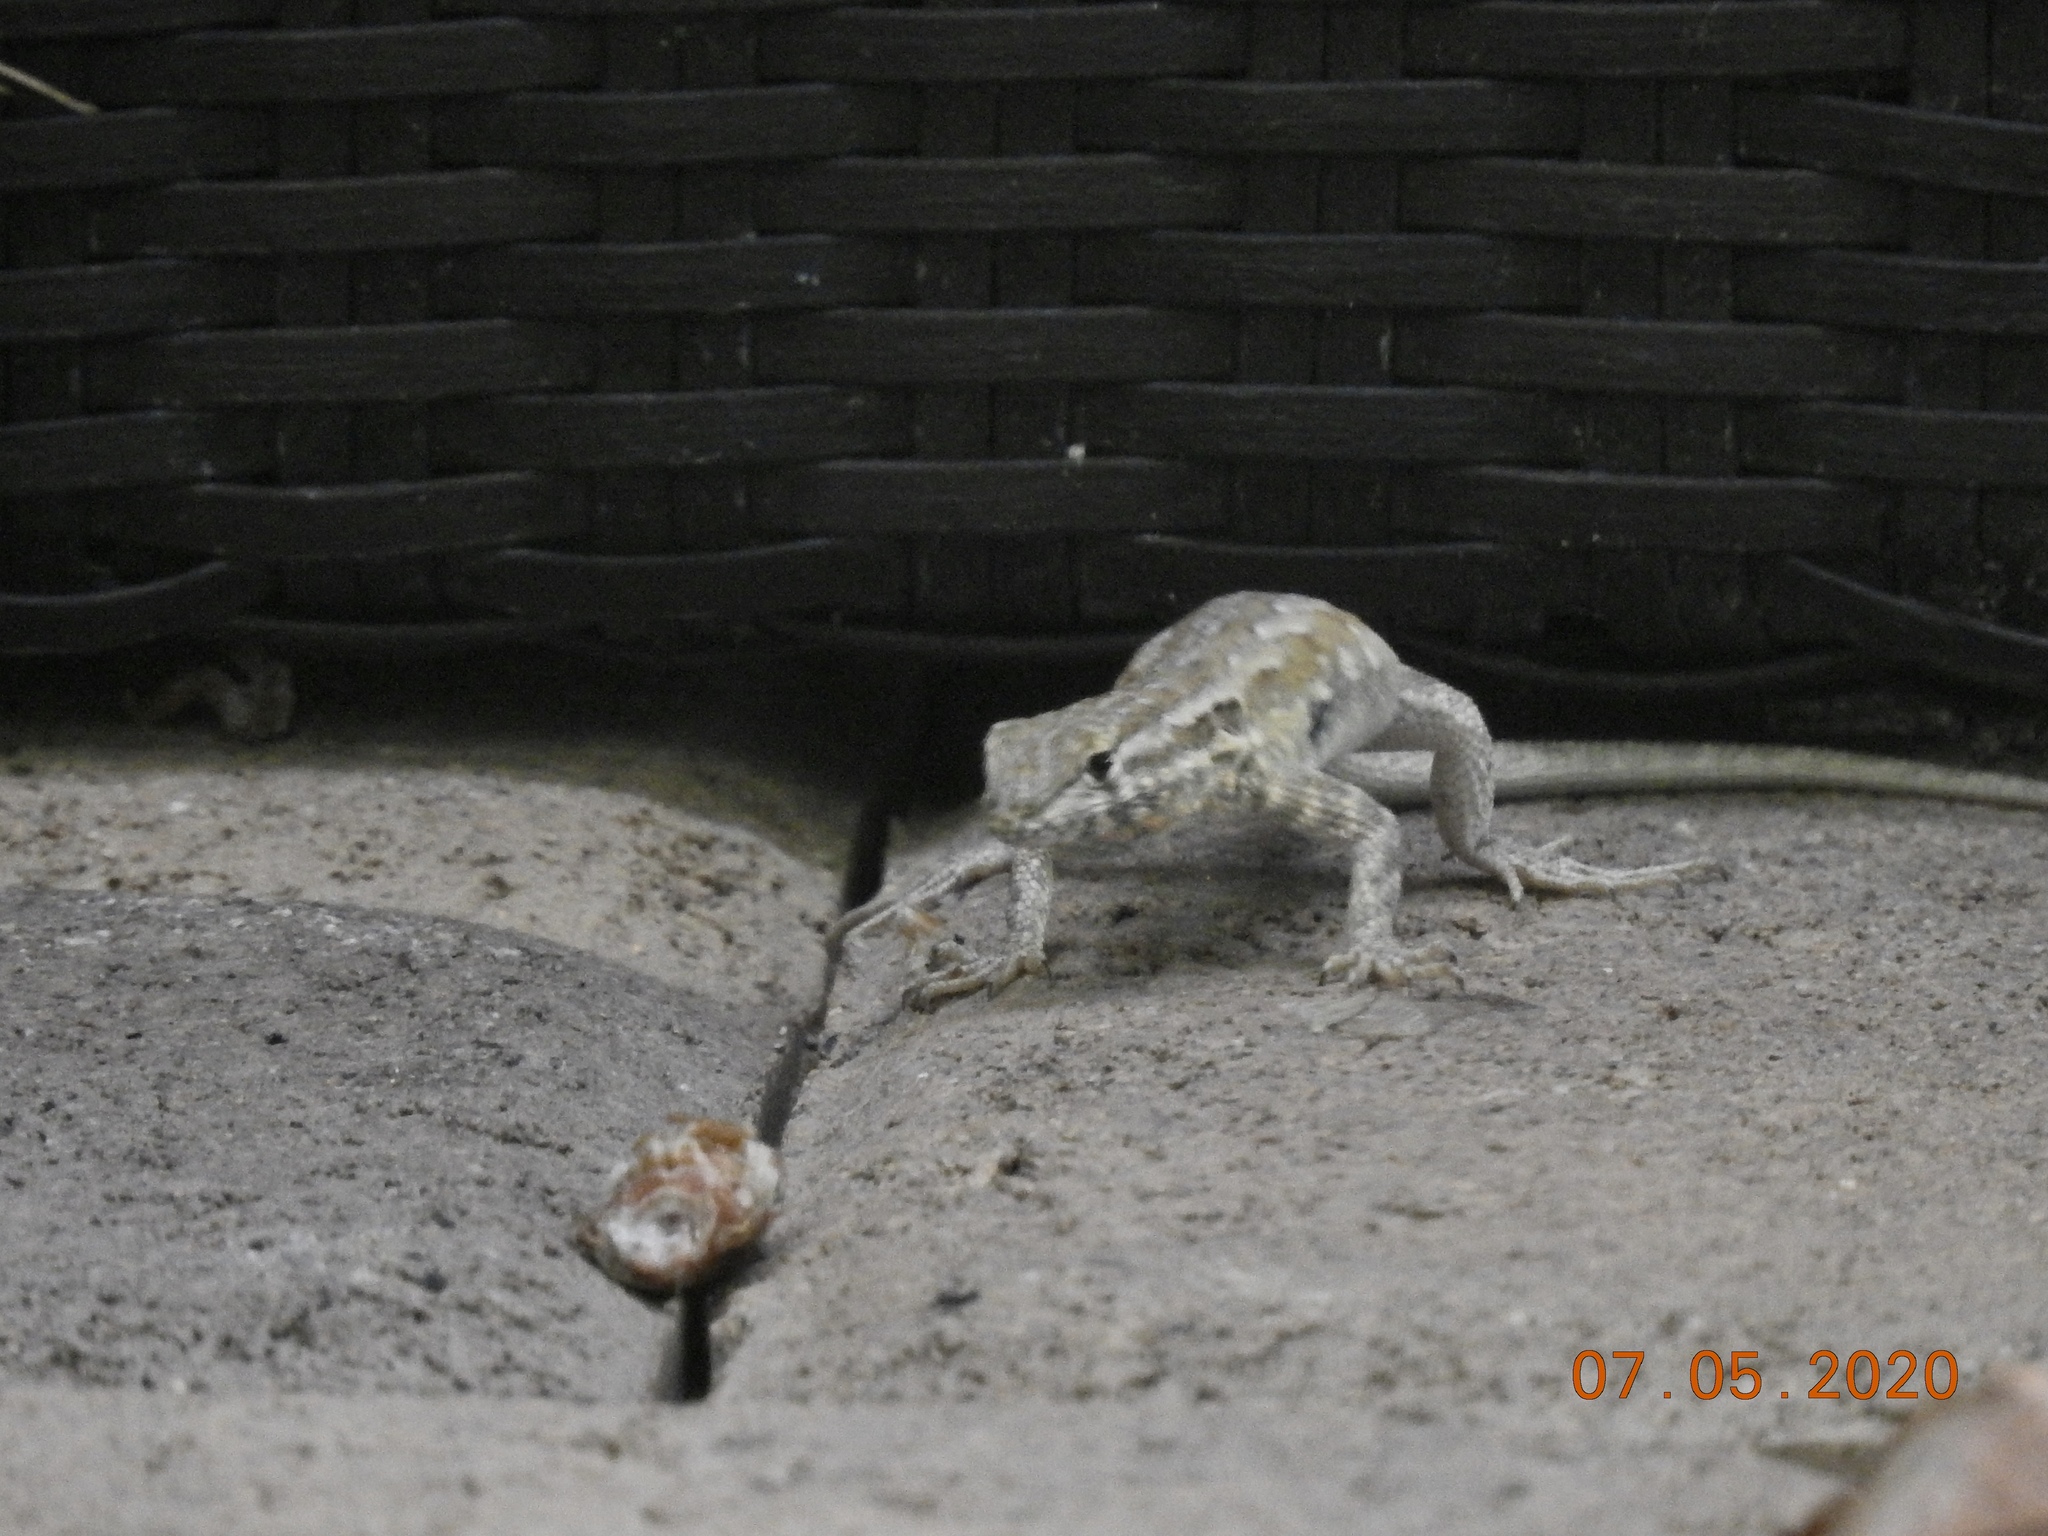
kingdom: Animalia
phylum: Chordata
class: Squamata
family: Phrynosomatidae
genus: Uta
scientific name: Uta stansburiana
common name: Side-blotched lizard
